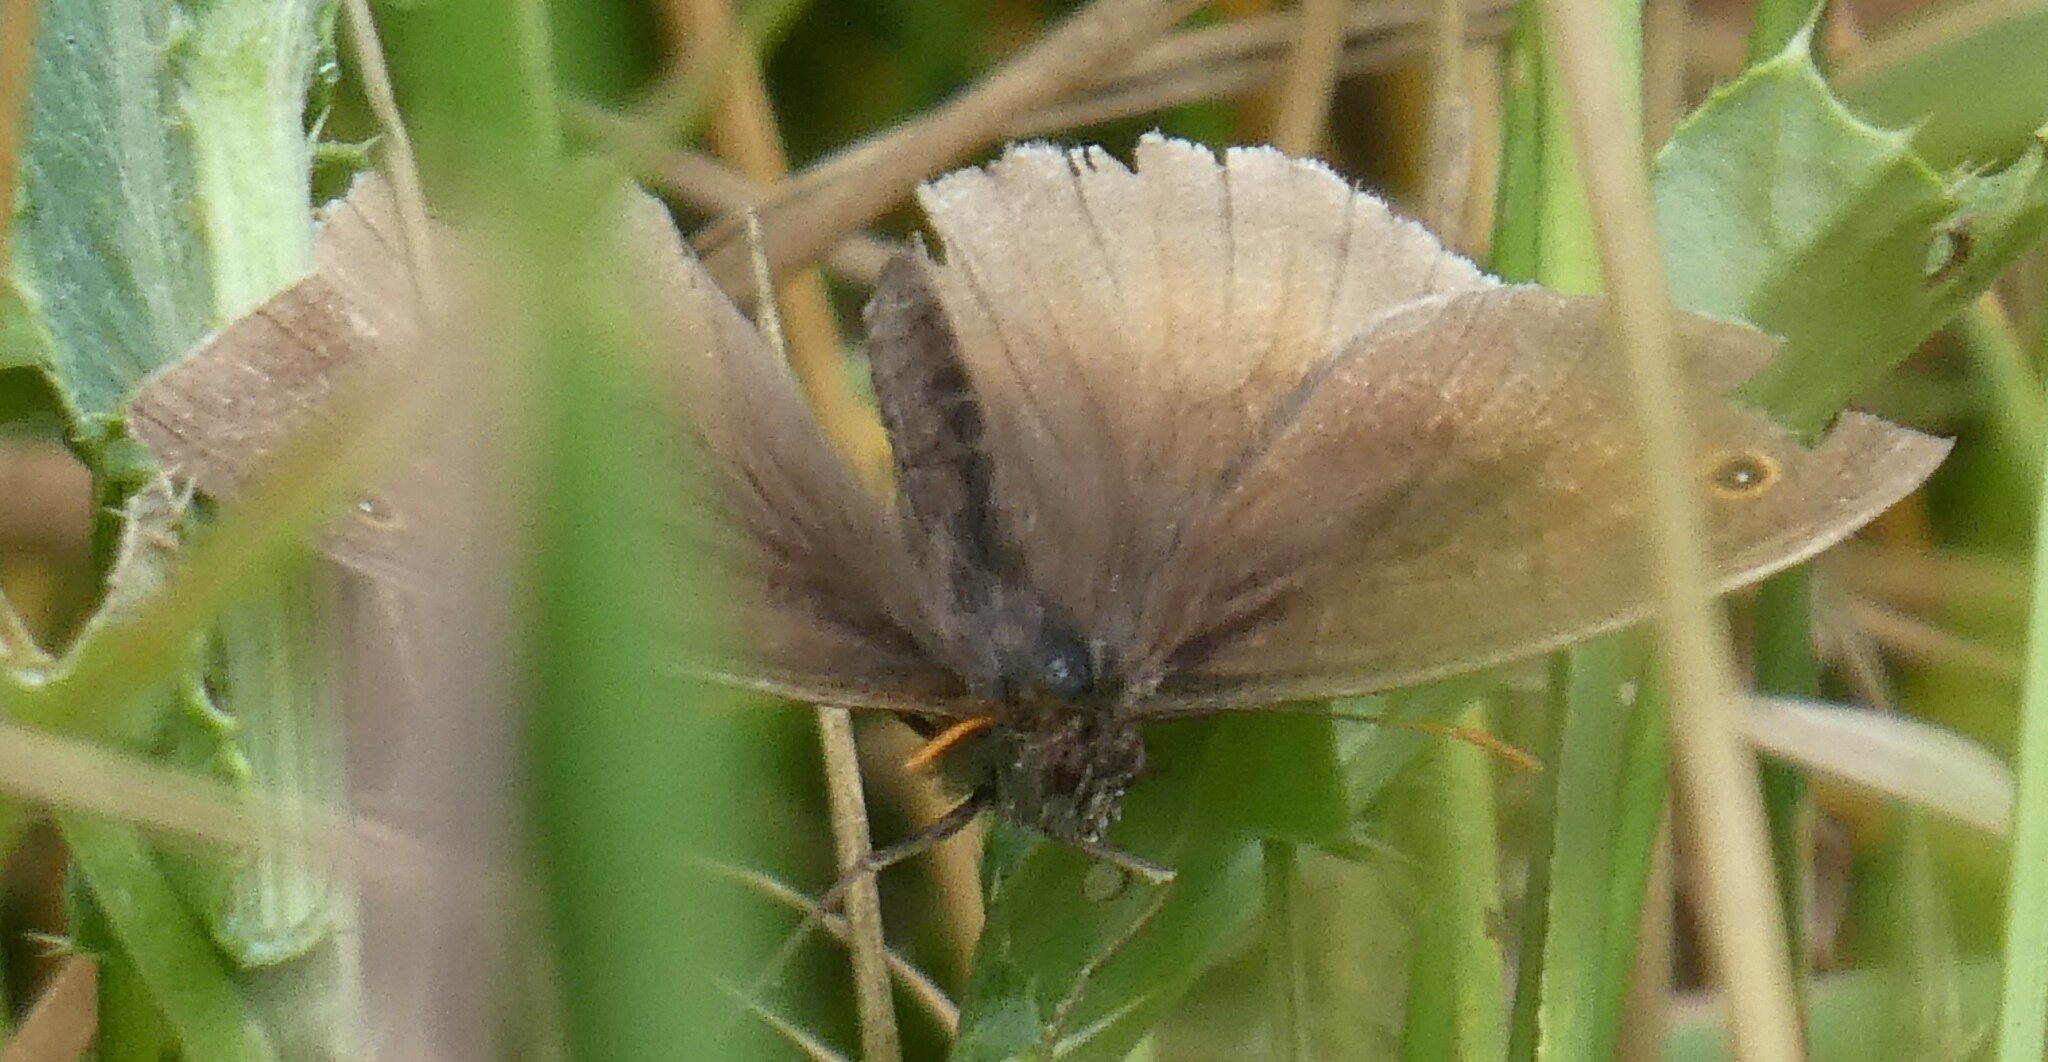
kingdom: Animalia
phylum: Arthropoda
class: Insecta
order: Lepidoptera
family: Nymphalidae
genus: Maniola
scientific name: Maniola jurtina
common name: Meadow brown
